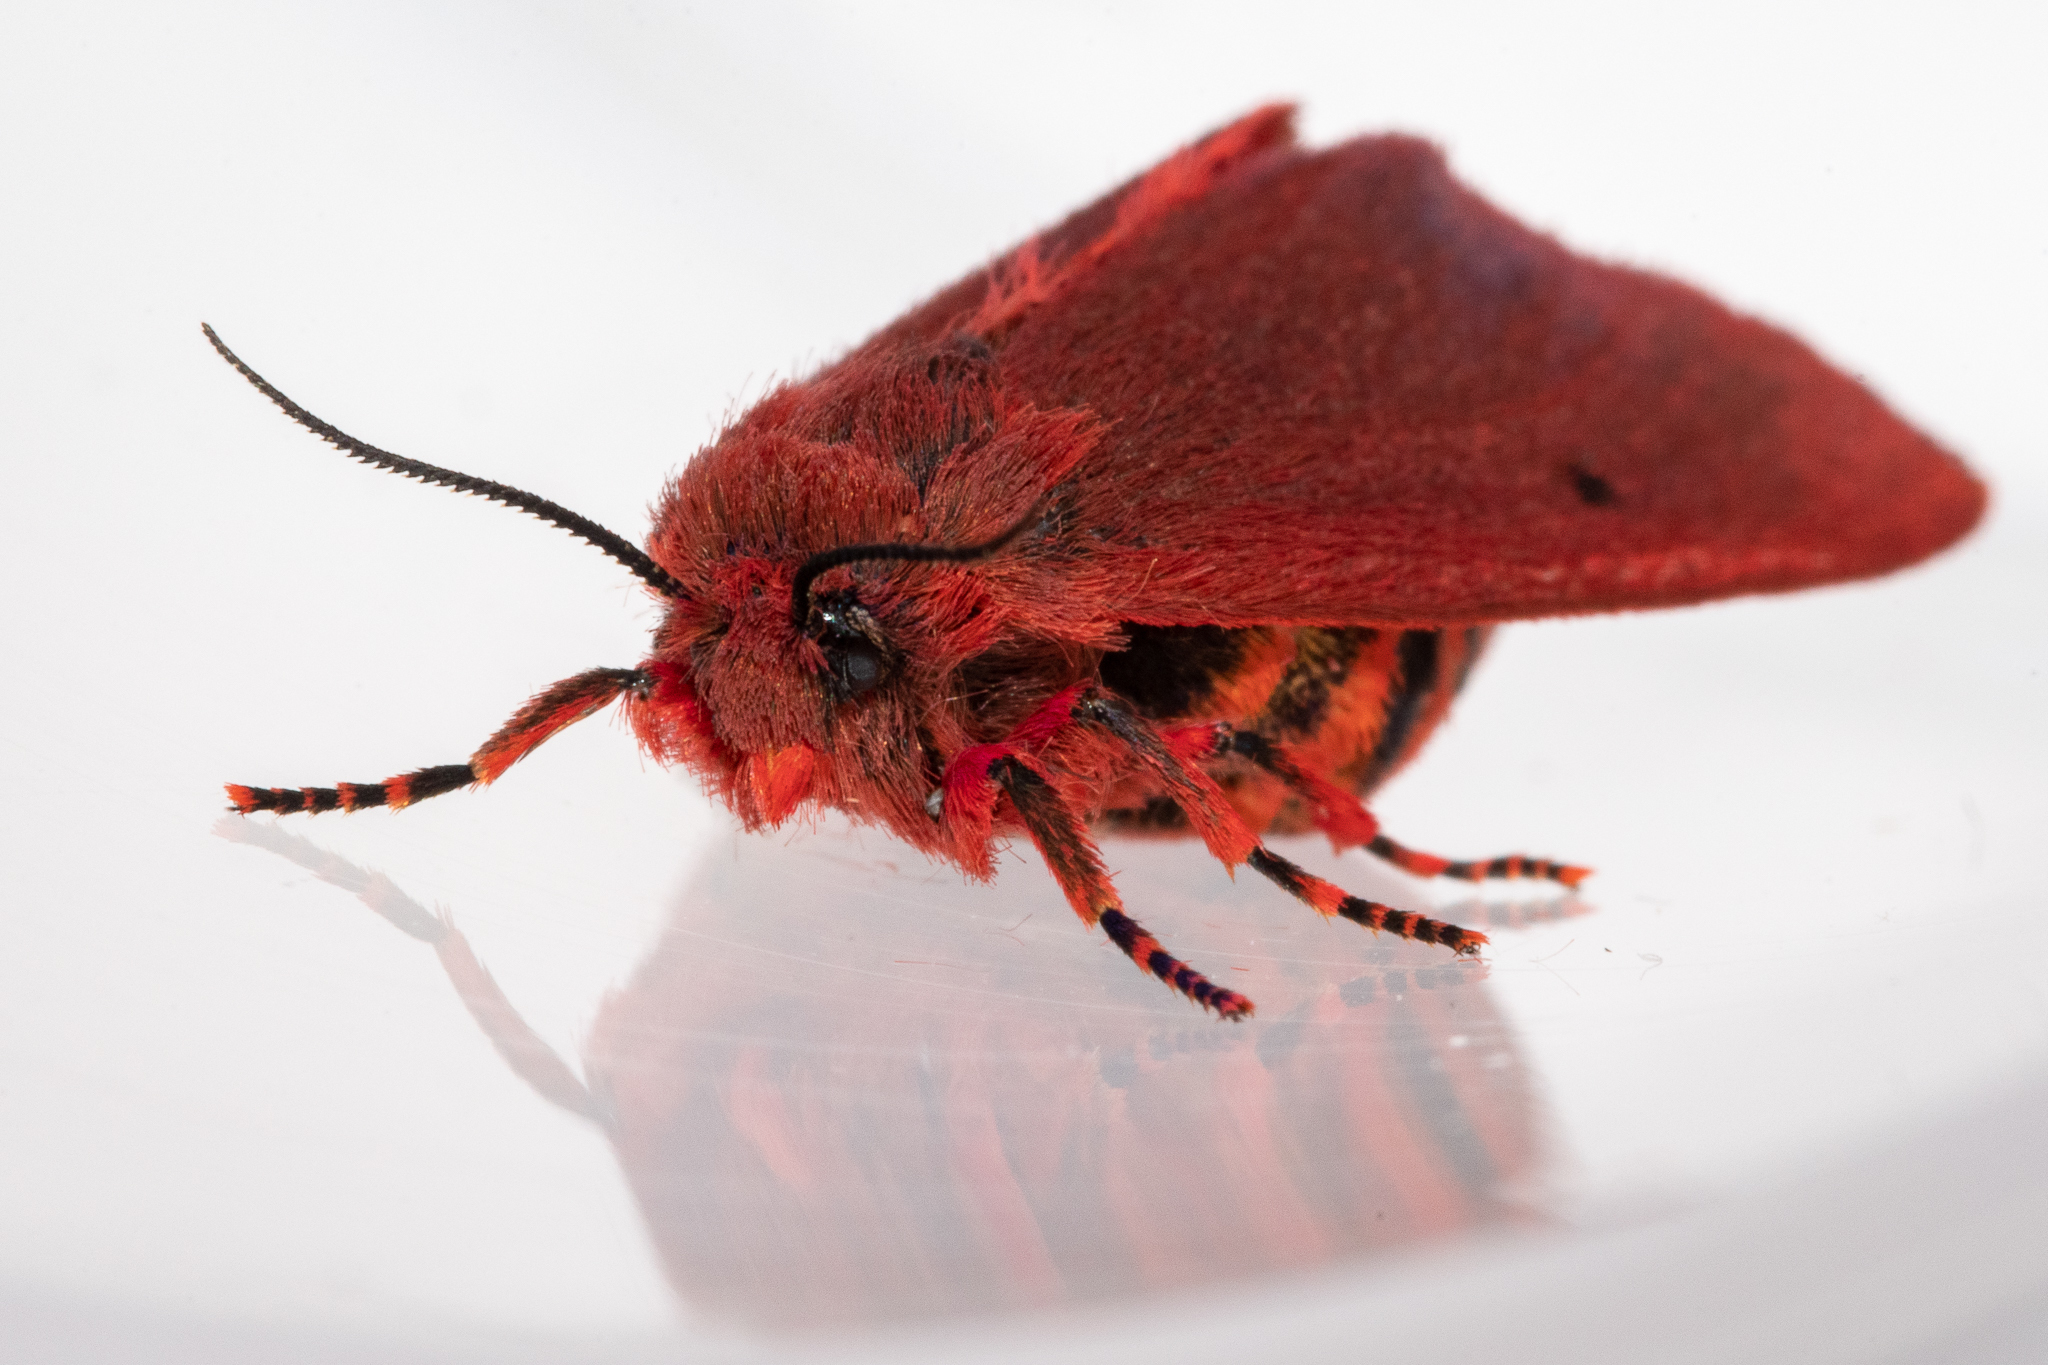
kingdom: Animalia
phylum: Arthropoda
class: Insecta
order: Lepidoptera
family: Erebidae
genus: Phragmatobia
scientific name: Phragmatobia parvula
